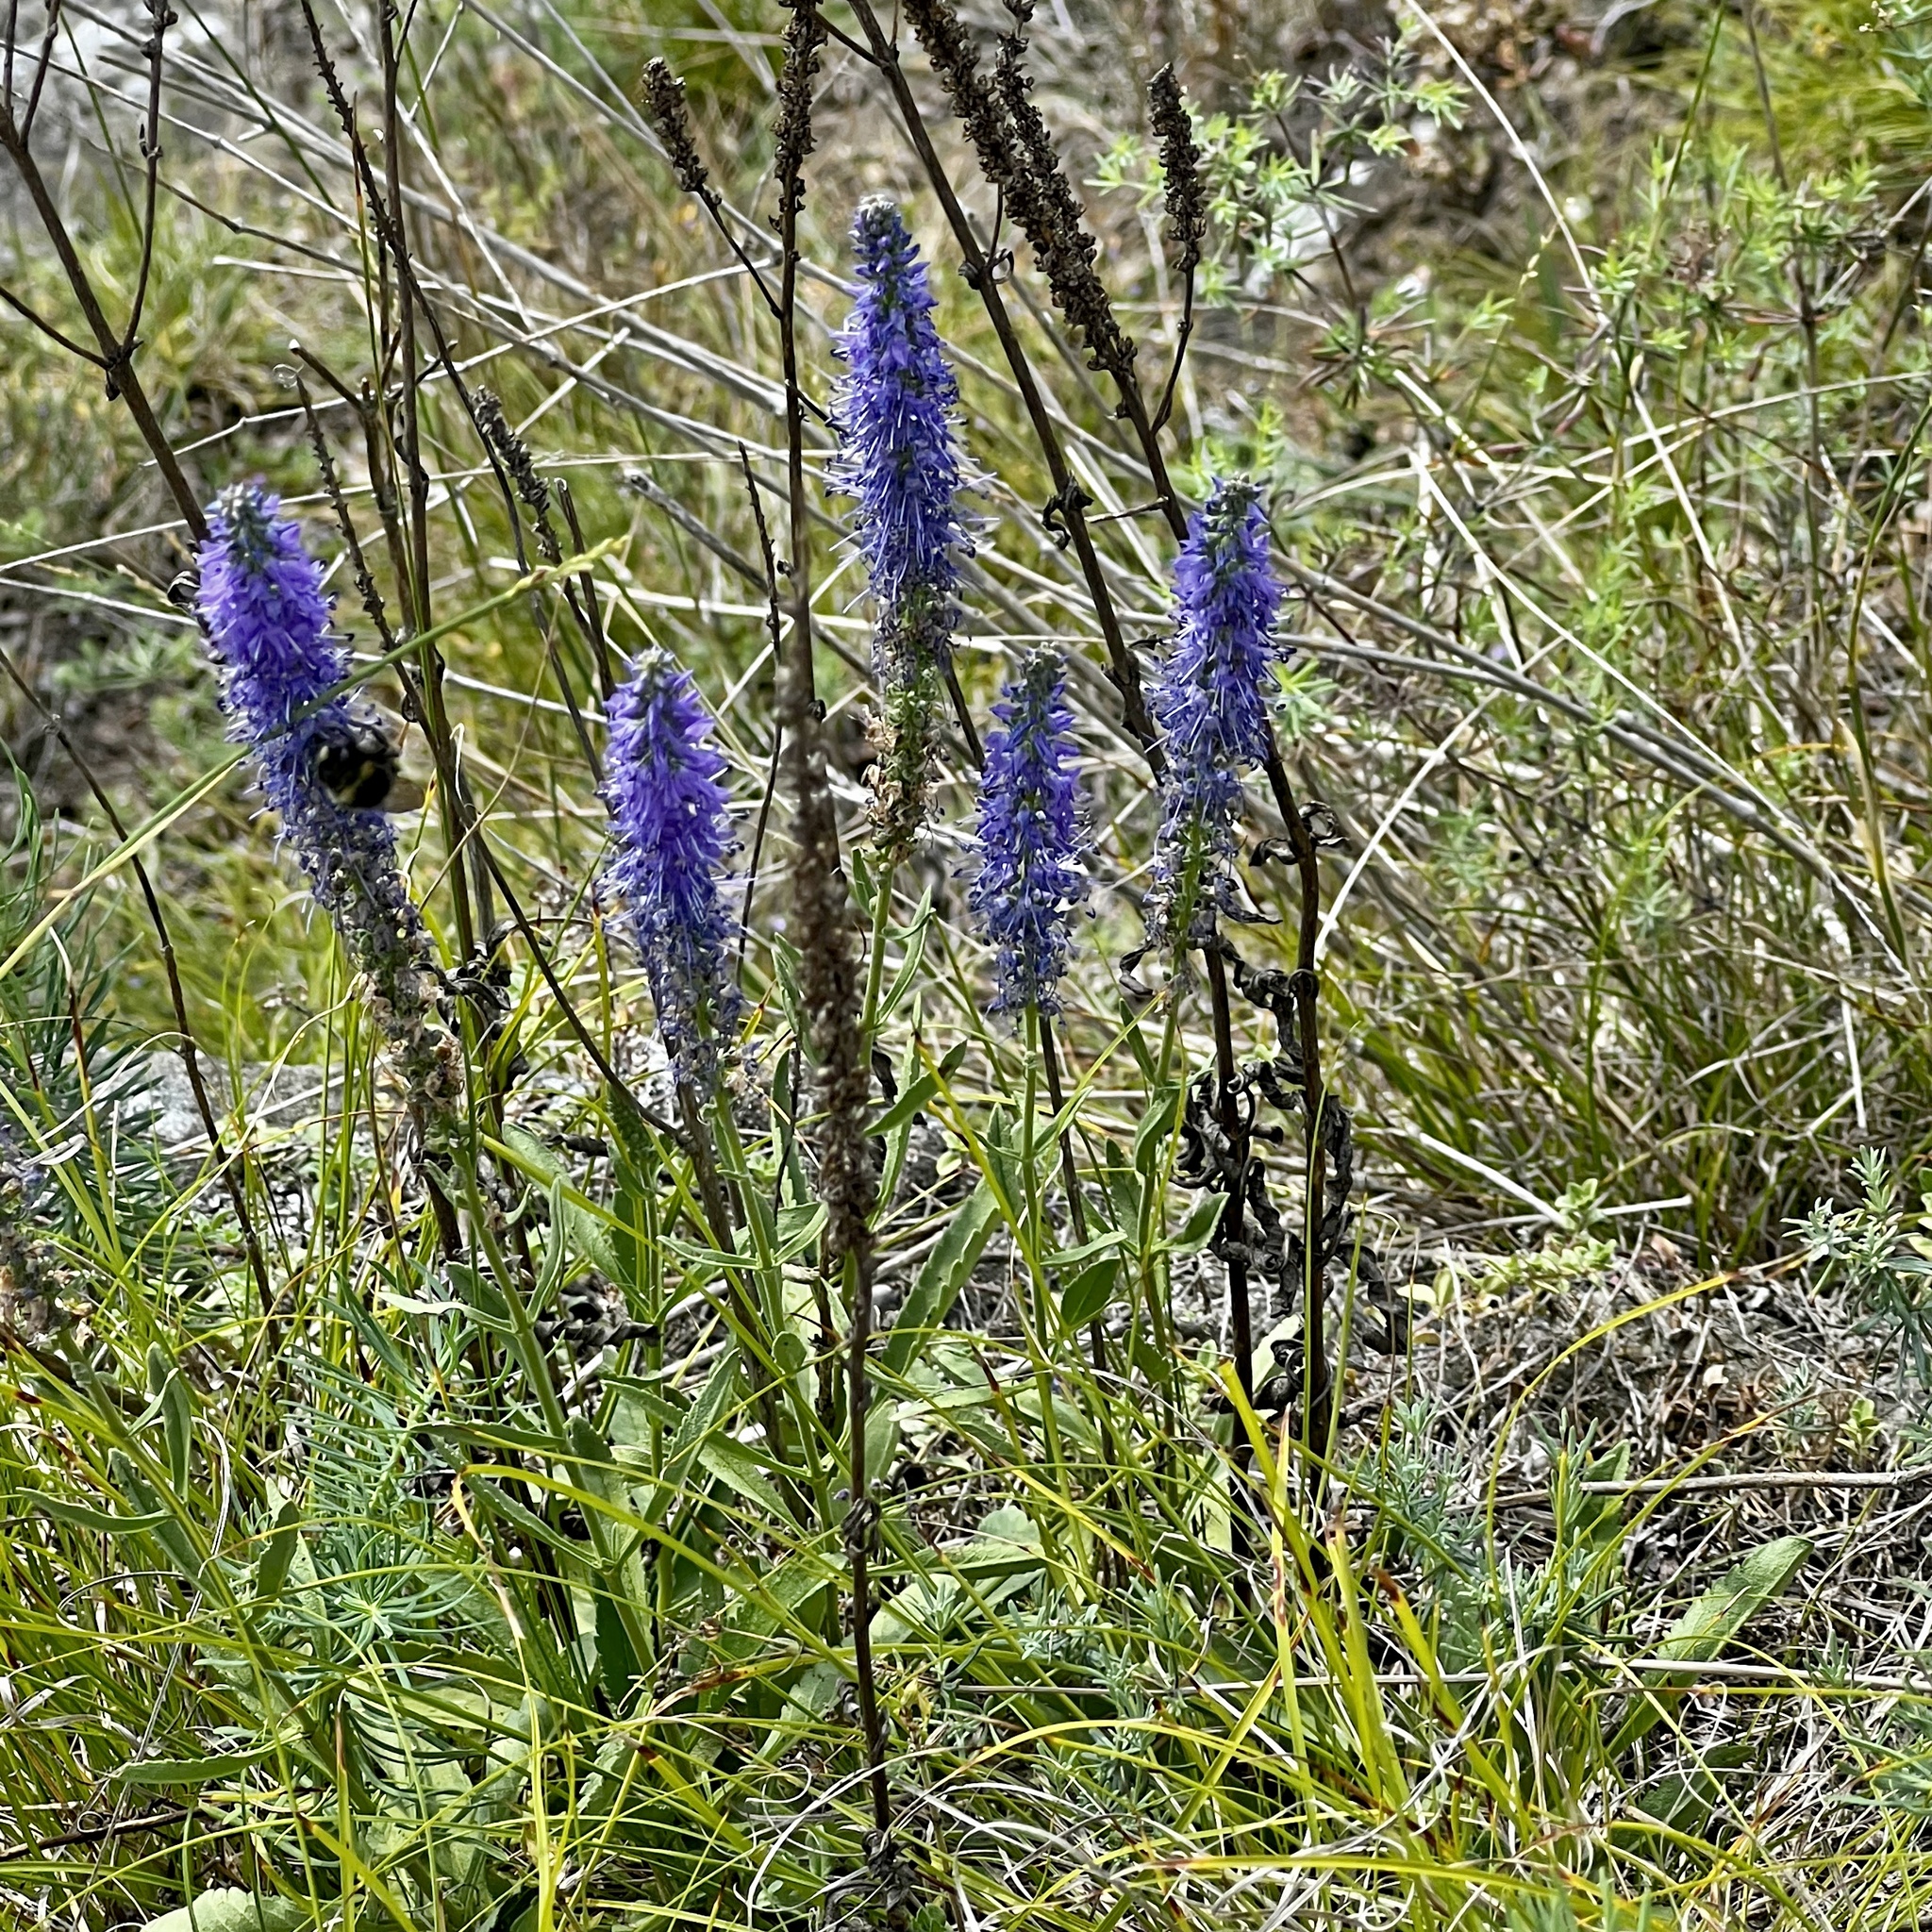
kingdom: Plantae
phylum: Tracheophyta
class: Magnoliopsida
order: Lamiales
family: Plantaginaceae
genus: Veronica
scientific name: Veronica spicata
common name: Spiked speedwell
